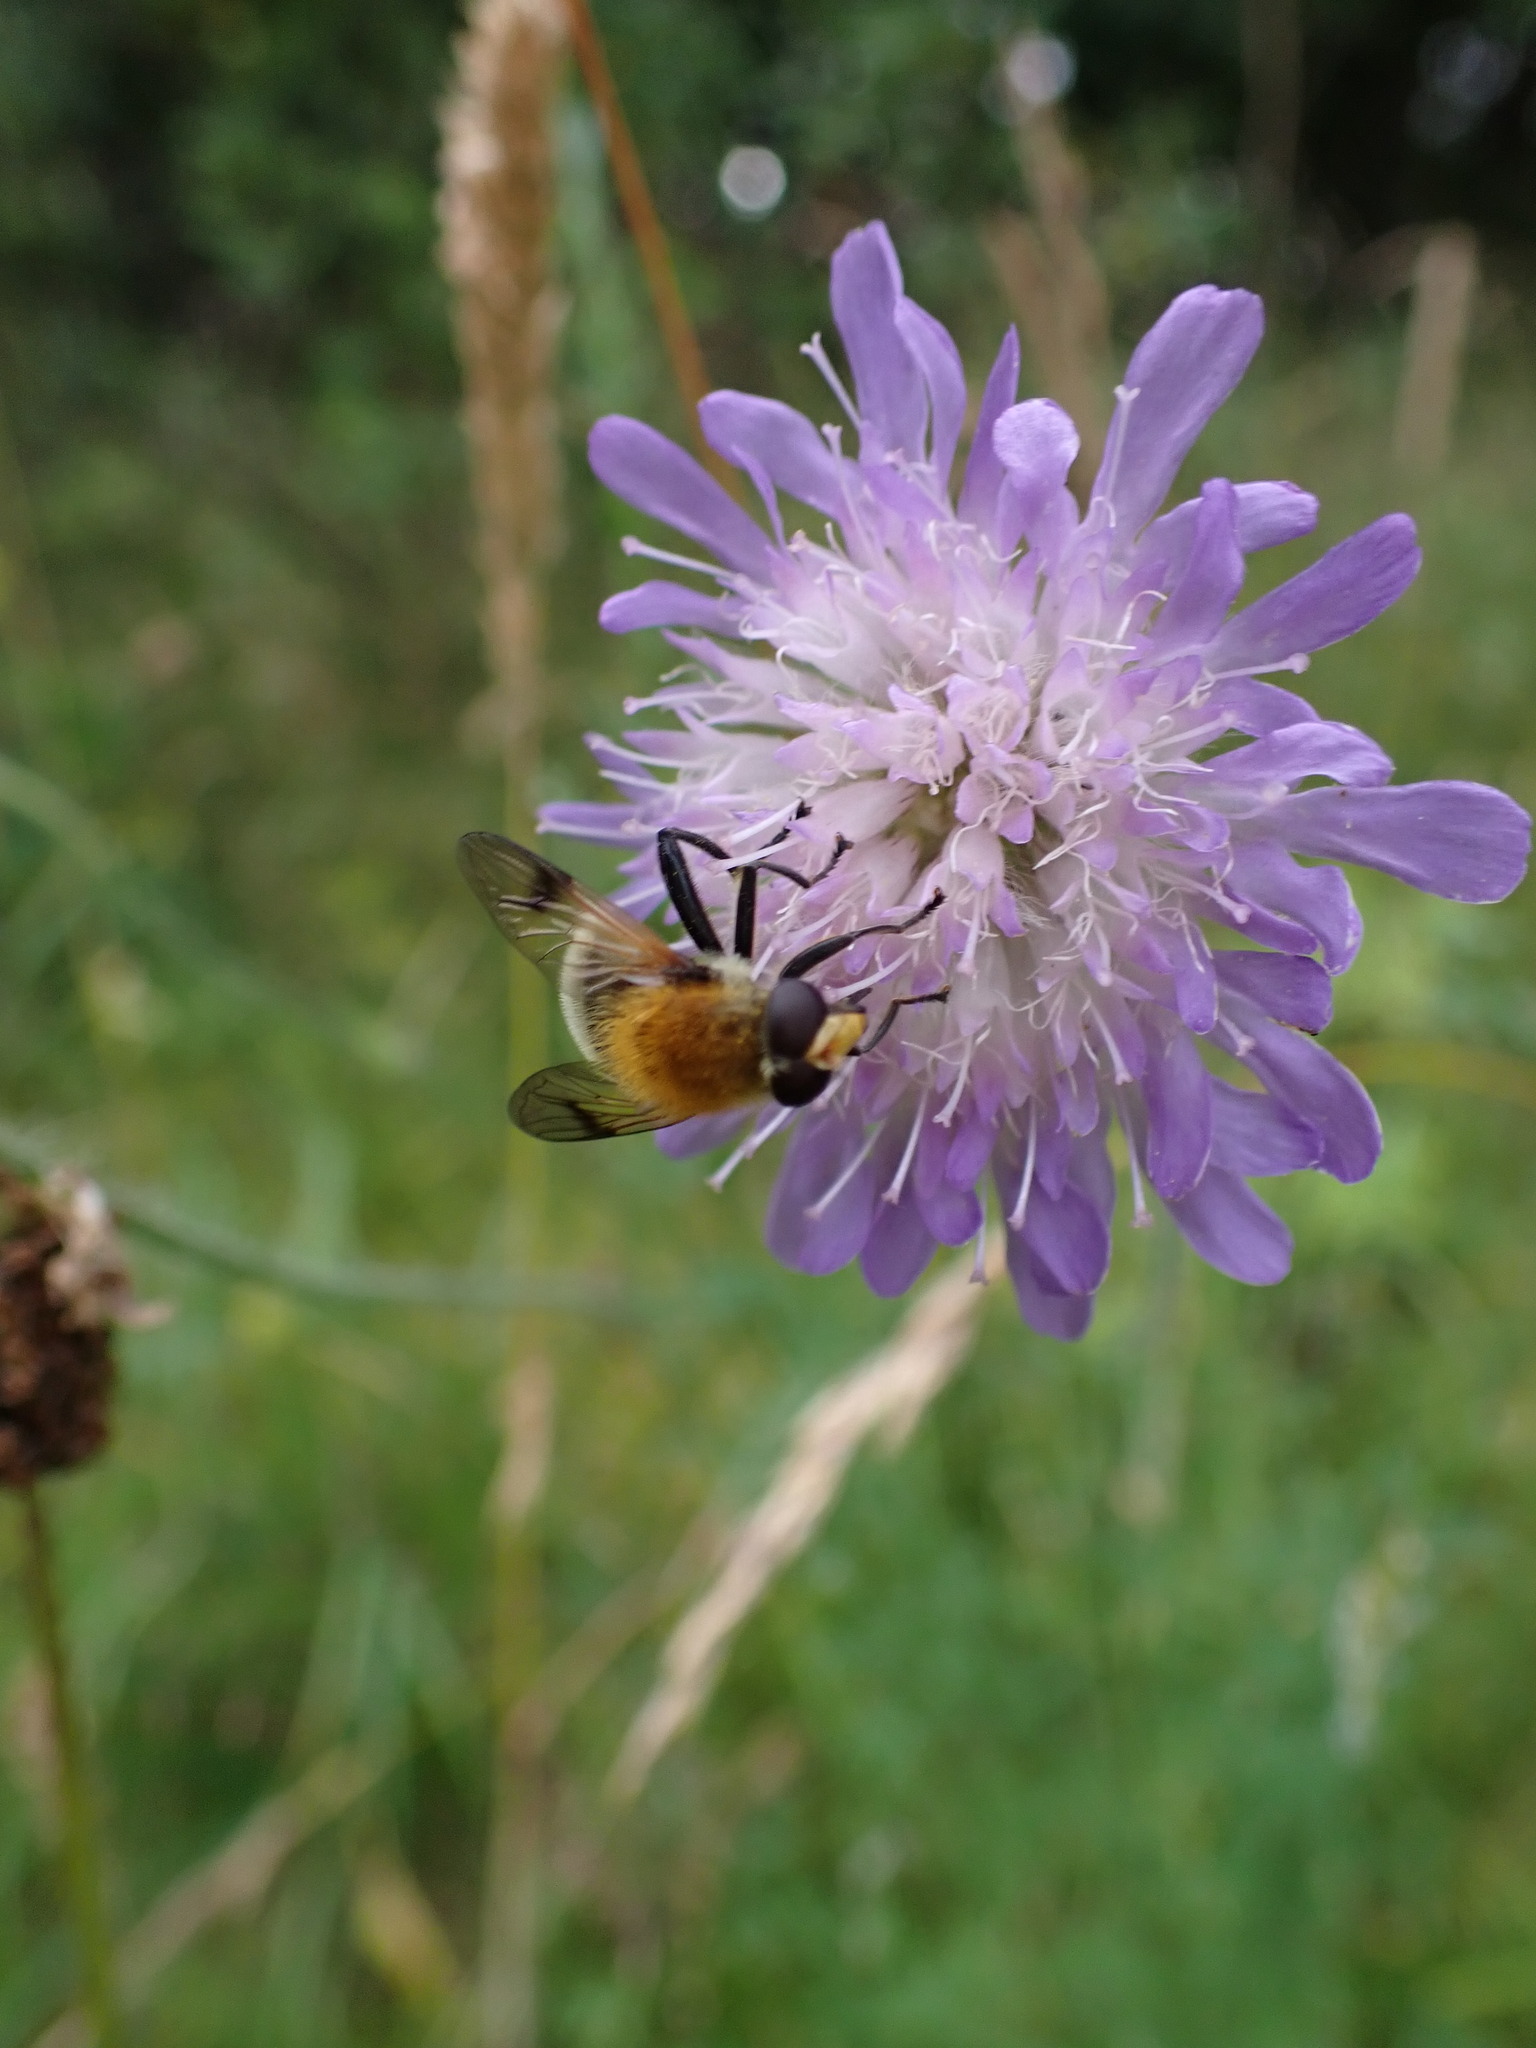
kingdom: Animalia
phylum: Arthropoda
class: Insecta
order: Diptera
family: Syrphidae
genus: Sericomyia
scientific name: Sericomyia superbiens
